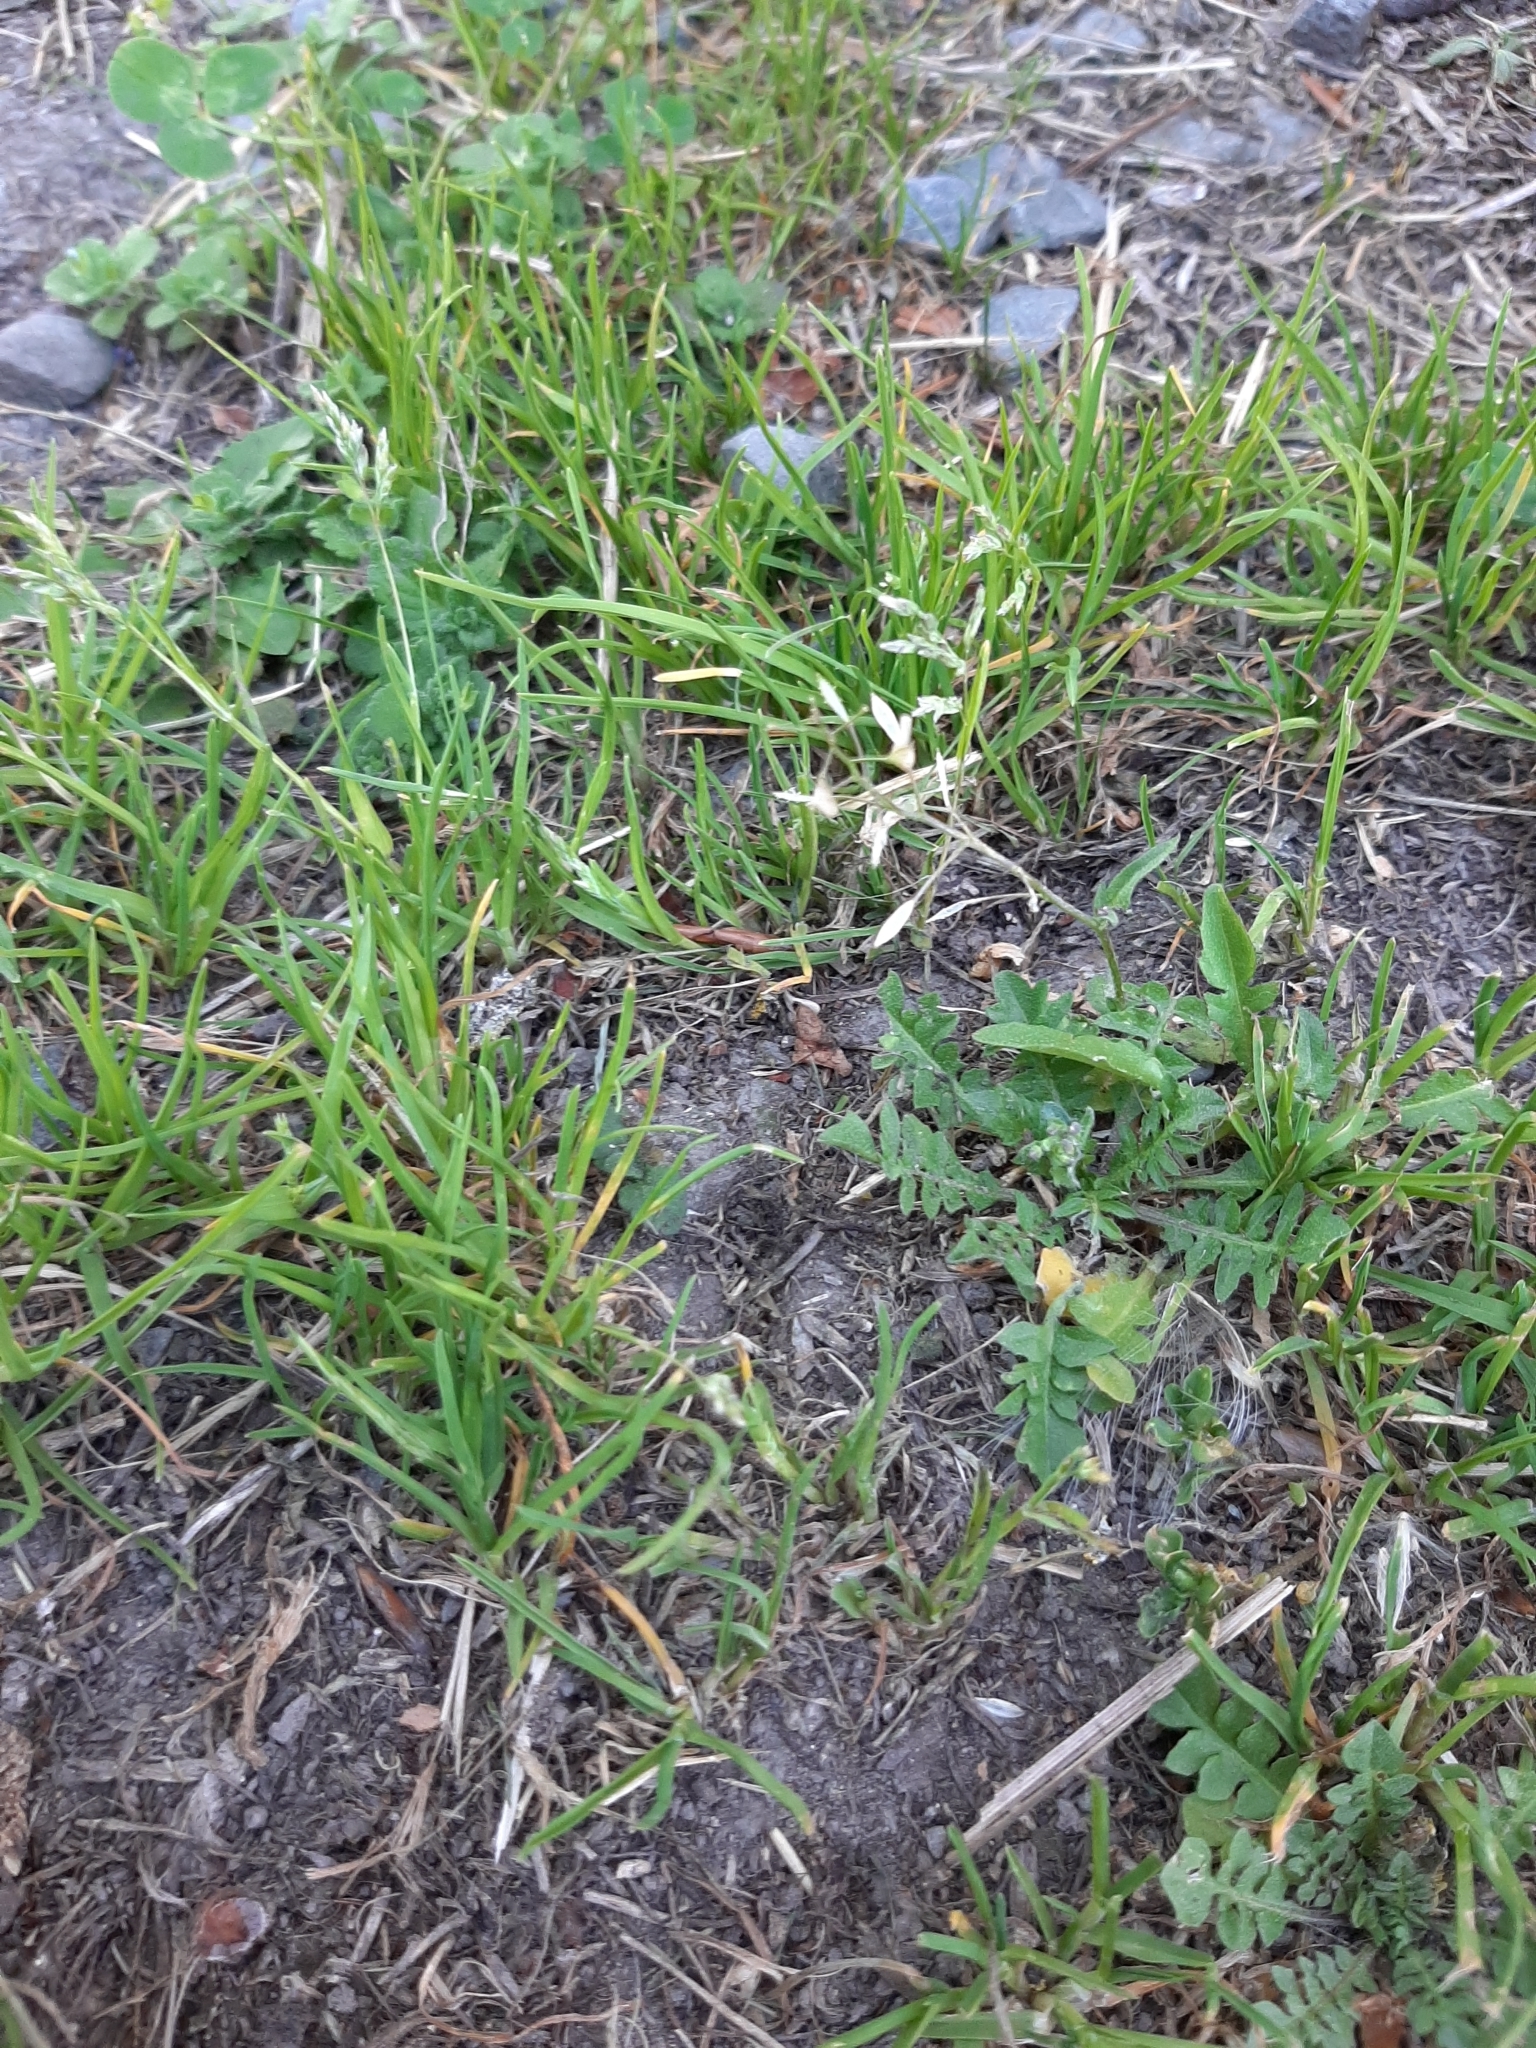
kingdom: Plantae
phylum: Tracheophyta
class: Liliopsida
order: Poales
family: Poaceae
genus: Poa
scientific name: Poa annua
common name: Annual bluegrass
